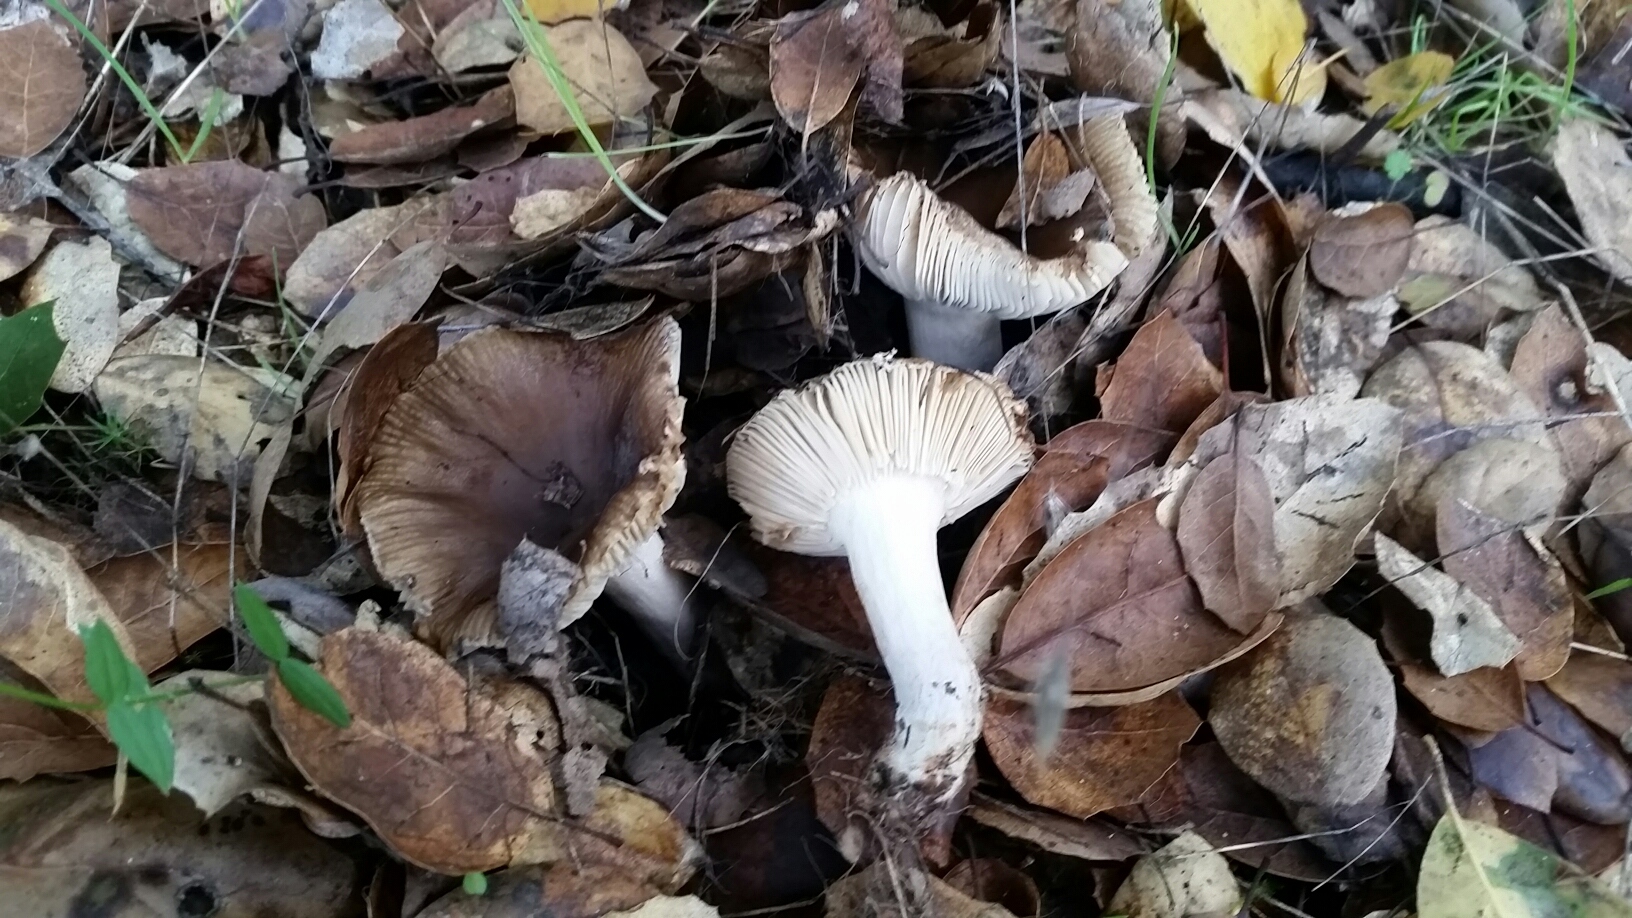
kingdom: Fungi
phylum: Basidiomycota
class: Agaricomycetes
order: Russulales
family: Russulaceae
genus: Russula
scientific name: Russula cerolens
